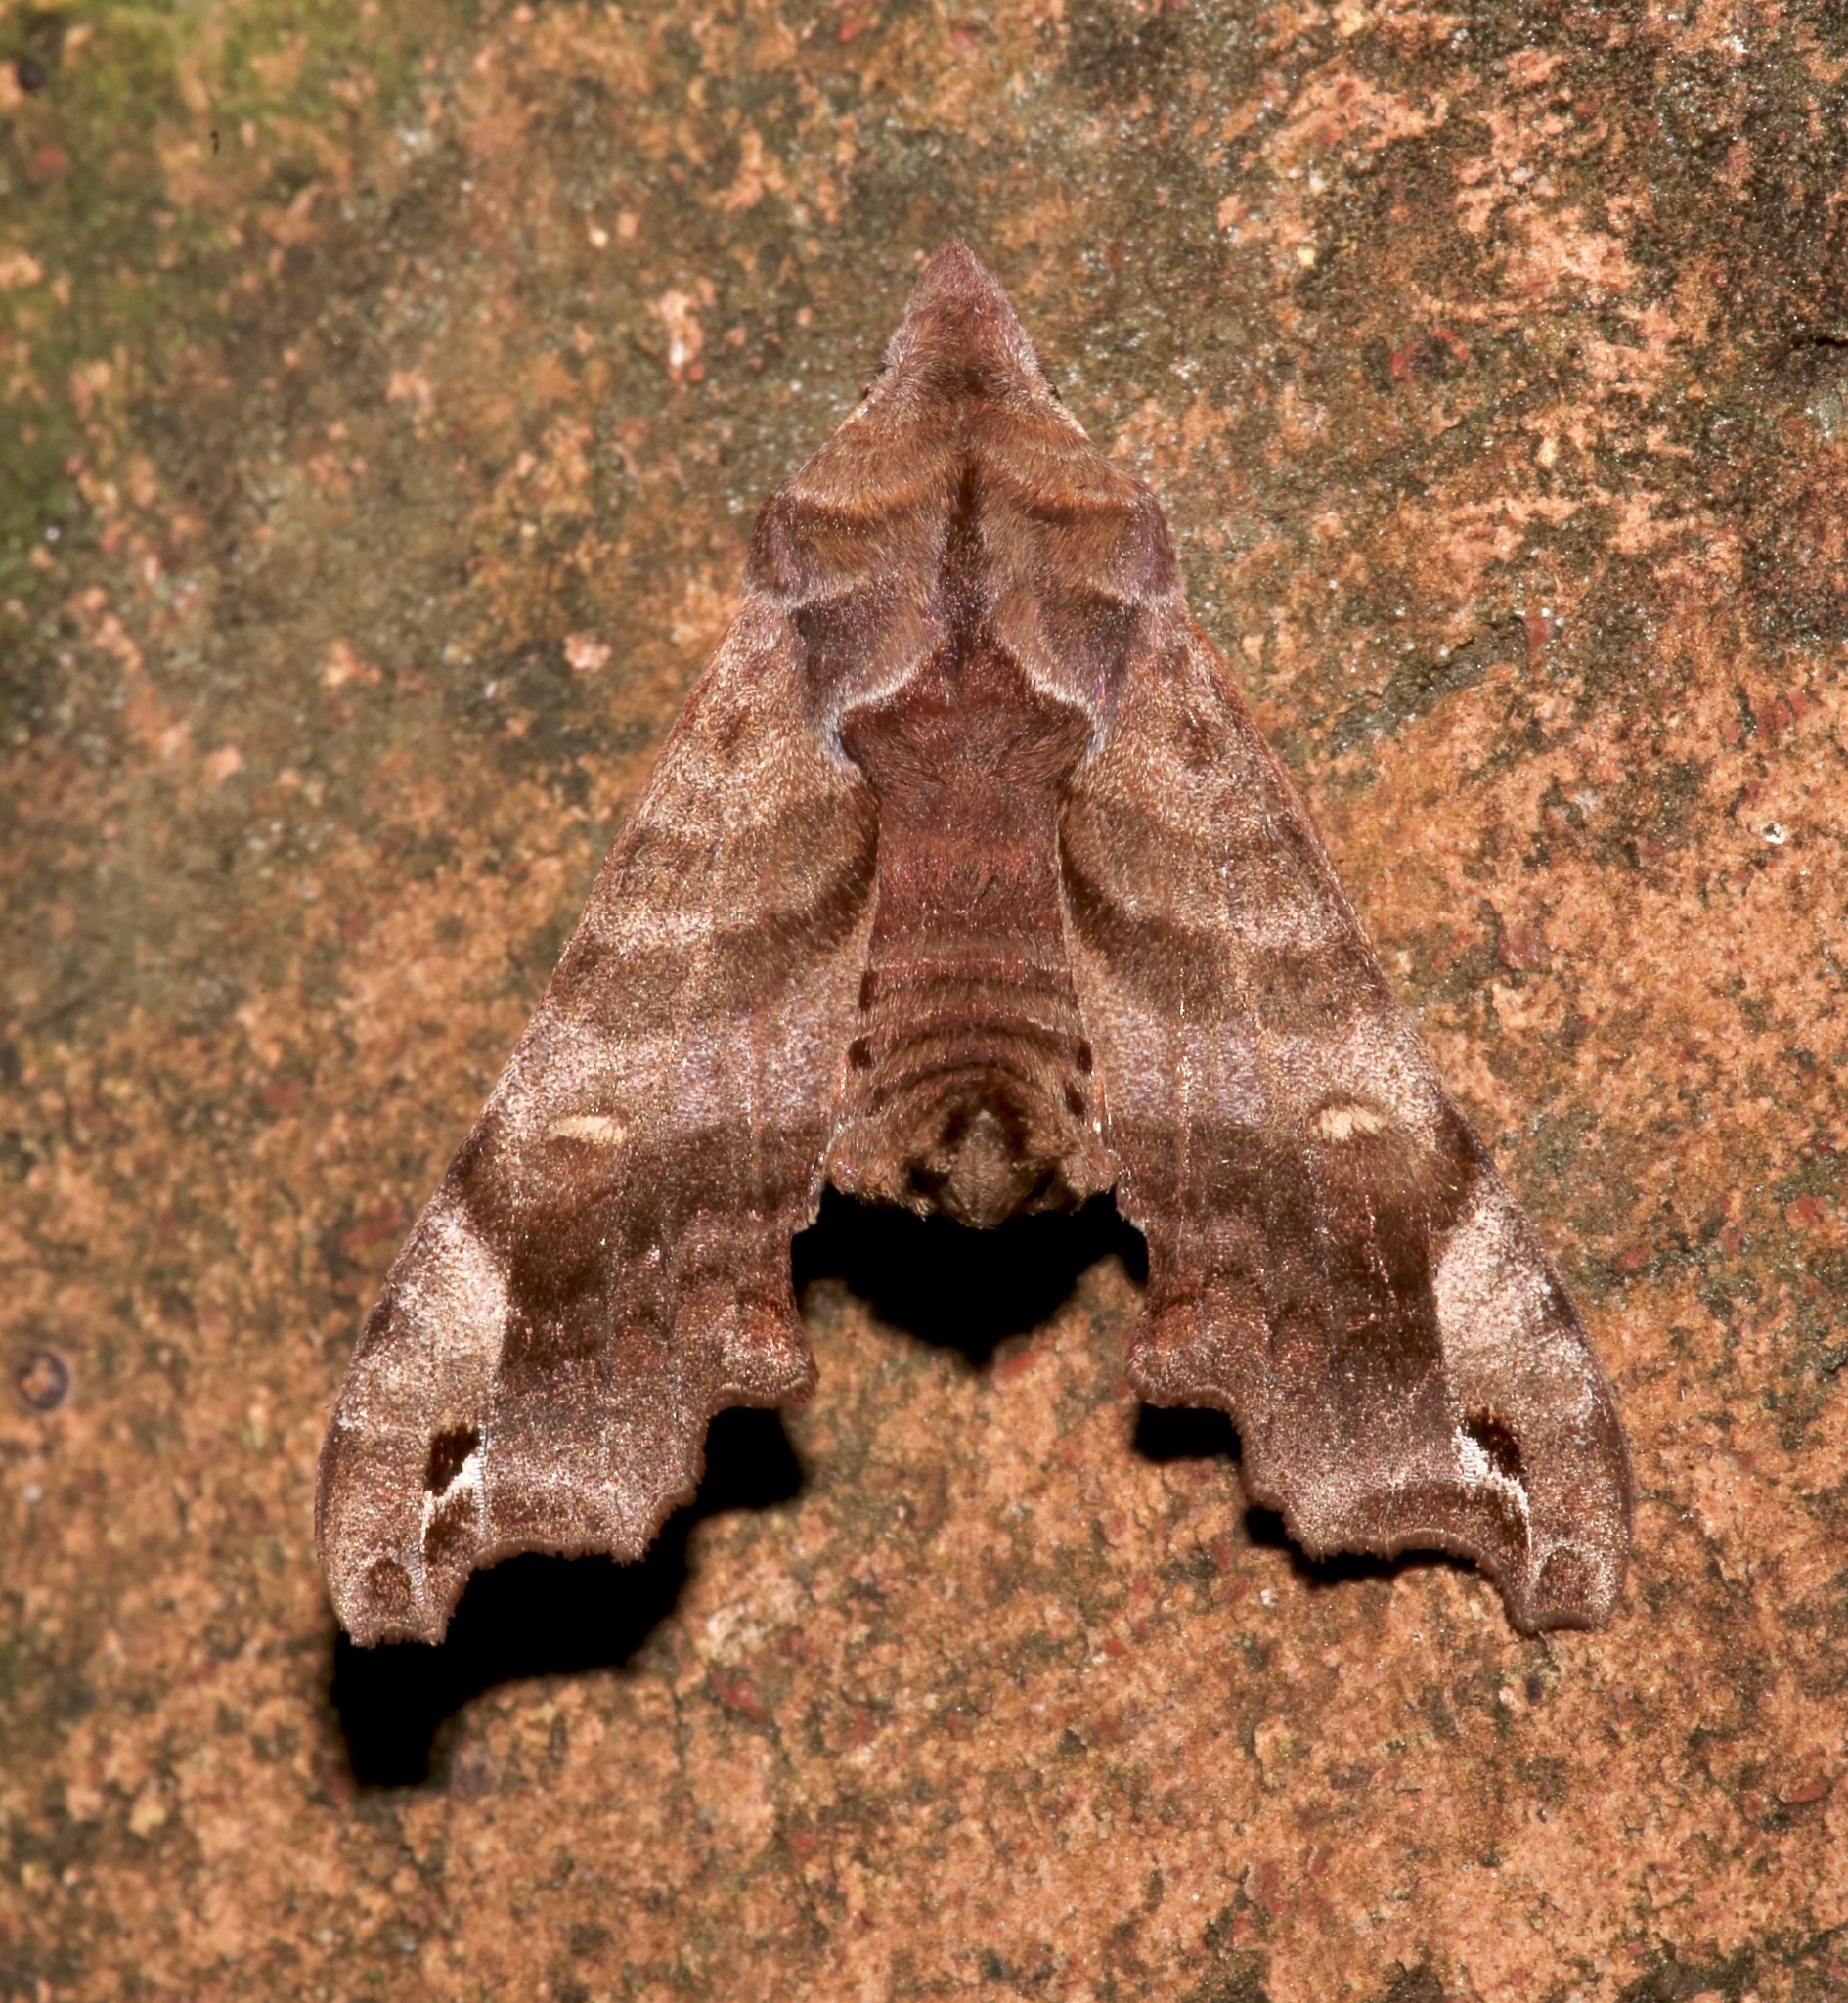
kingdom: Animalia
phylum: Arthropoda
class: Insecta
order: Lepidoptera
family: Sphingidae
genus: Deidamia
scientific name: Deidamia inscriptum
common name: Lettered sphinx
